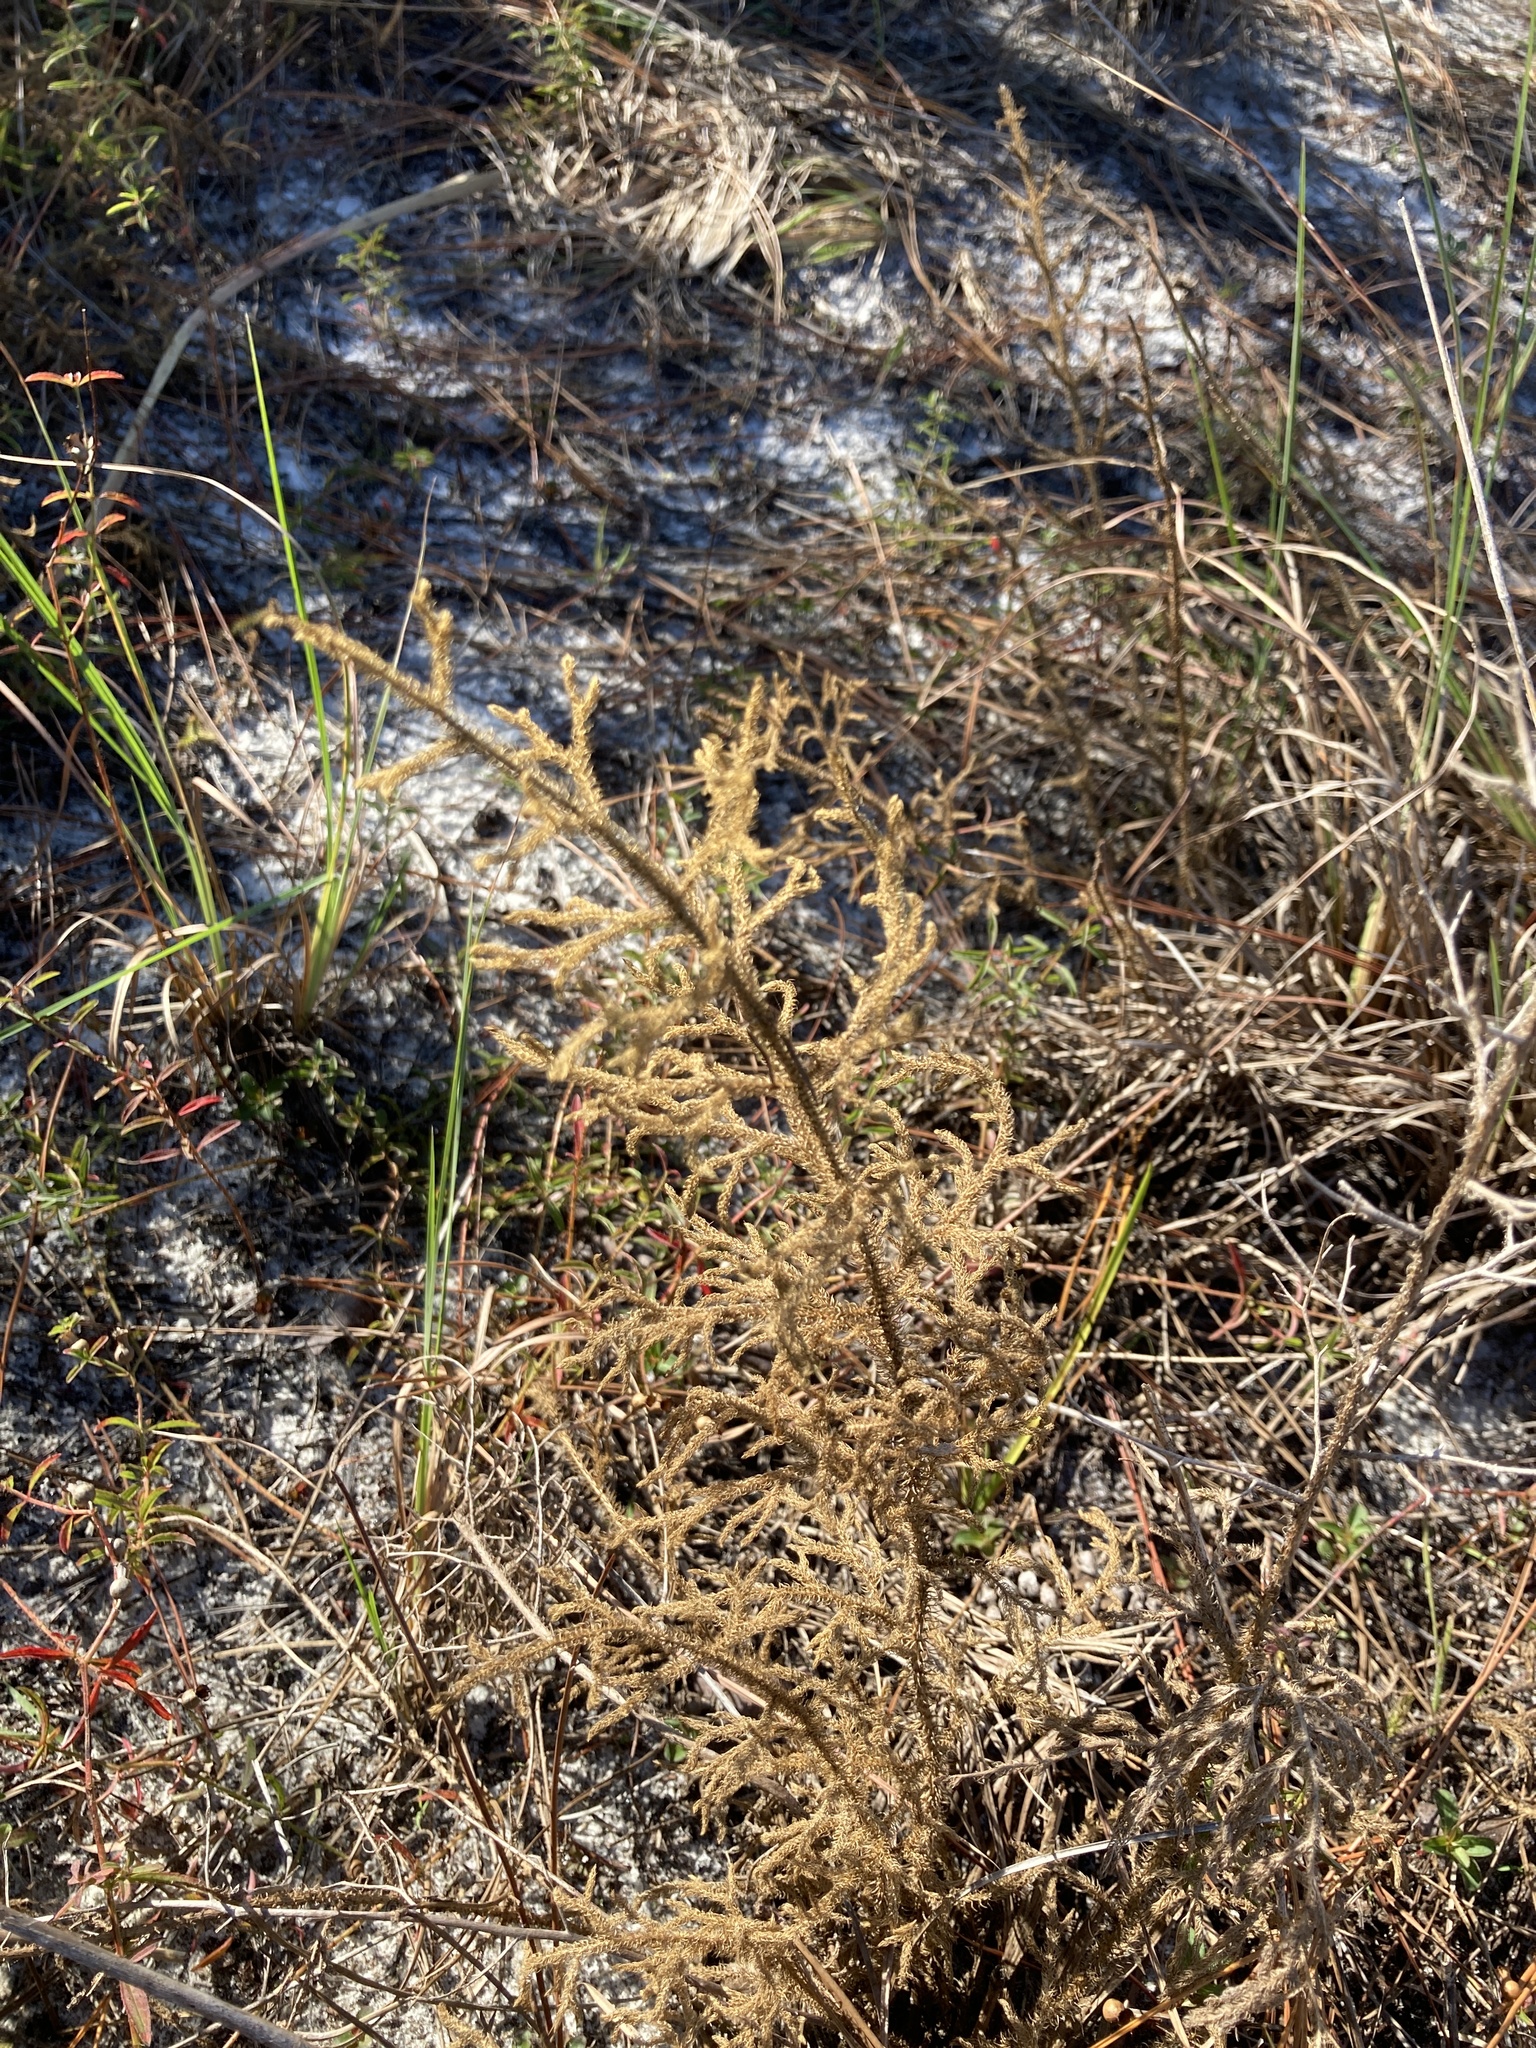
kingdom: Plantae
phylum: Tracheophyta
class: Lycopodiopsida
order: Lycopodiales
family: Lycopodiaceae
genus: Palhinhaea
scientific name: Palhinhaea cernua
